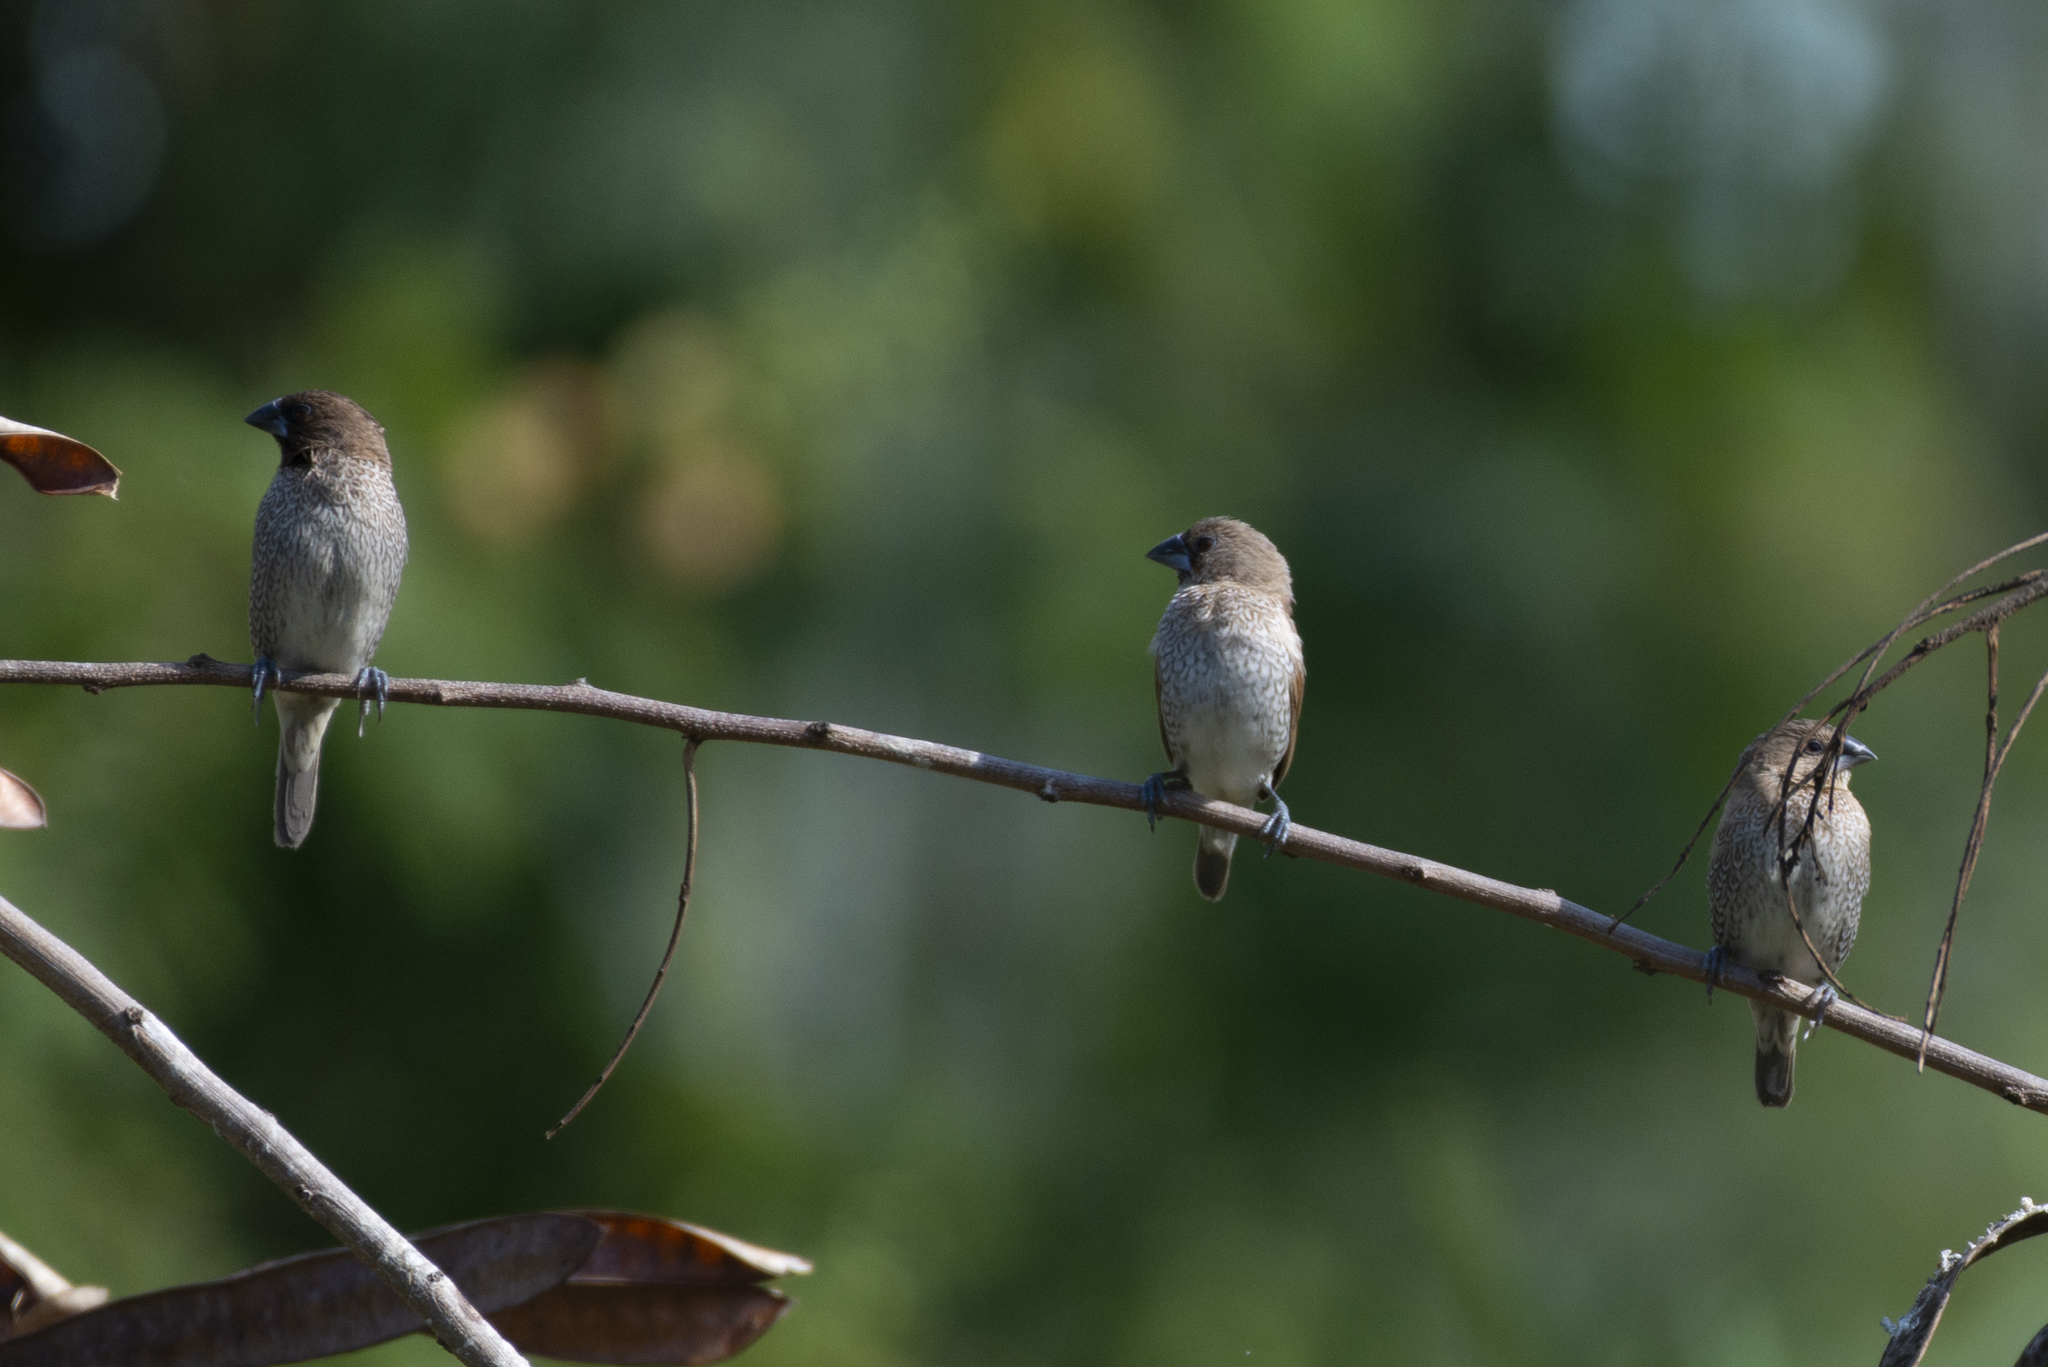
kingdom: Animalia
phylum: Chordata
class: Aves
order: Passeriformes
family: Estrildidae
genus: Lonchura
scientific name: Lonchura punctulata
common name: Scaly-breasted munia
